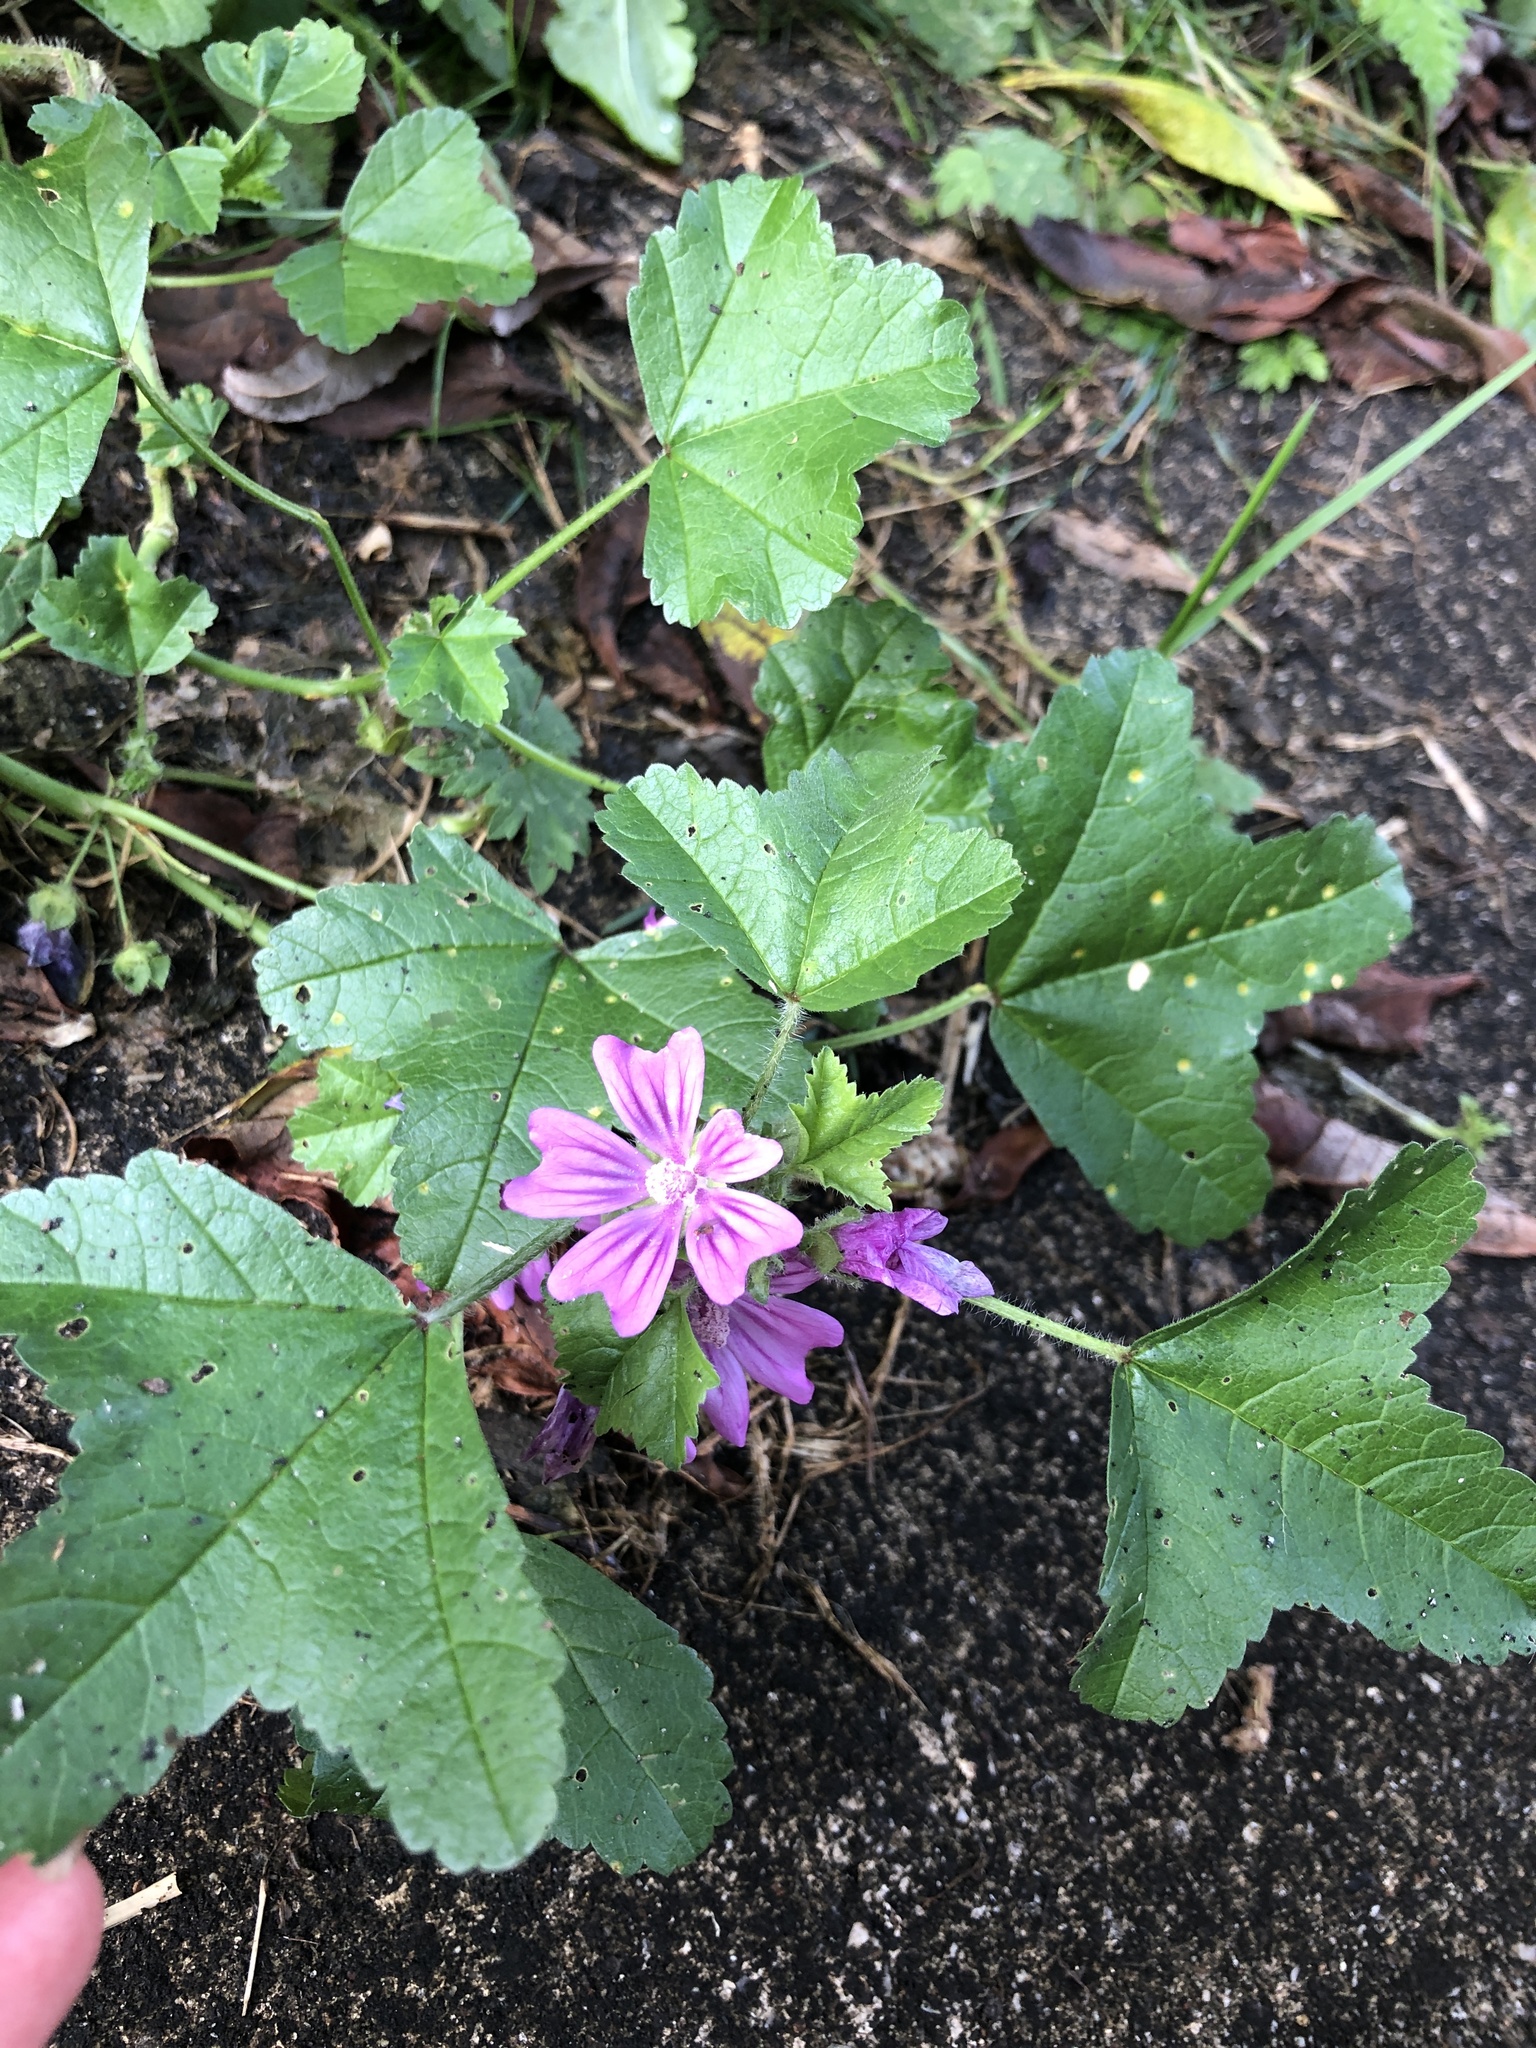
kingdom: Plantae
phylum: Tracheophyta
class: Magnoliopsida
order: Malvales
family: Malvaceae
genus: Malva
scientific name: Malva sylvestris
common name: Common mallow
